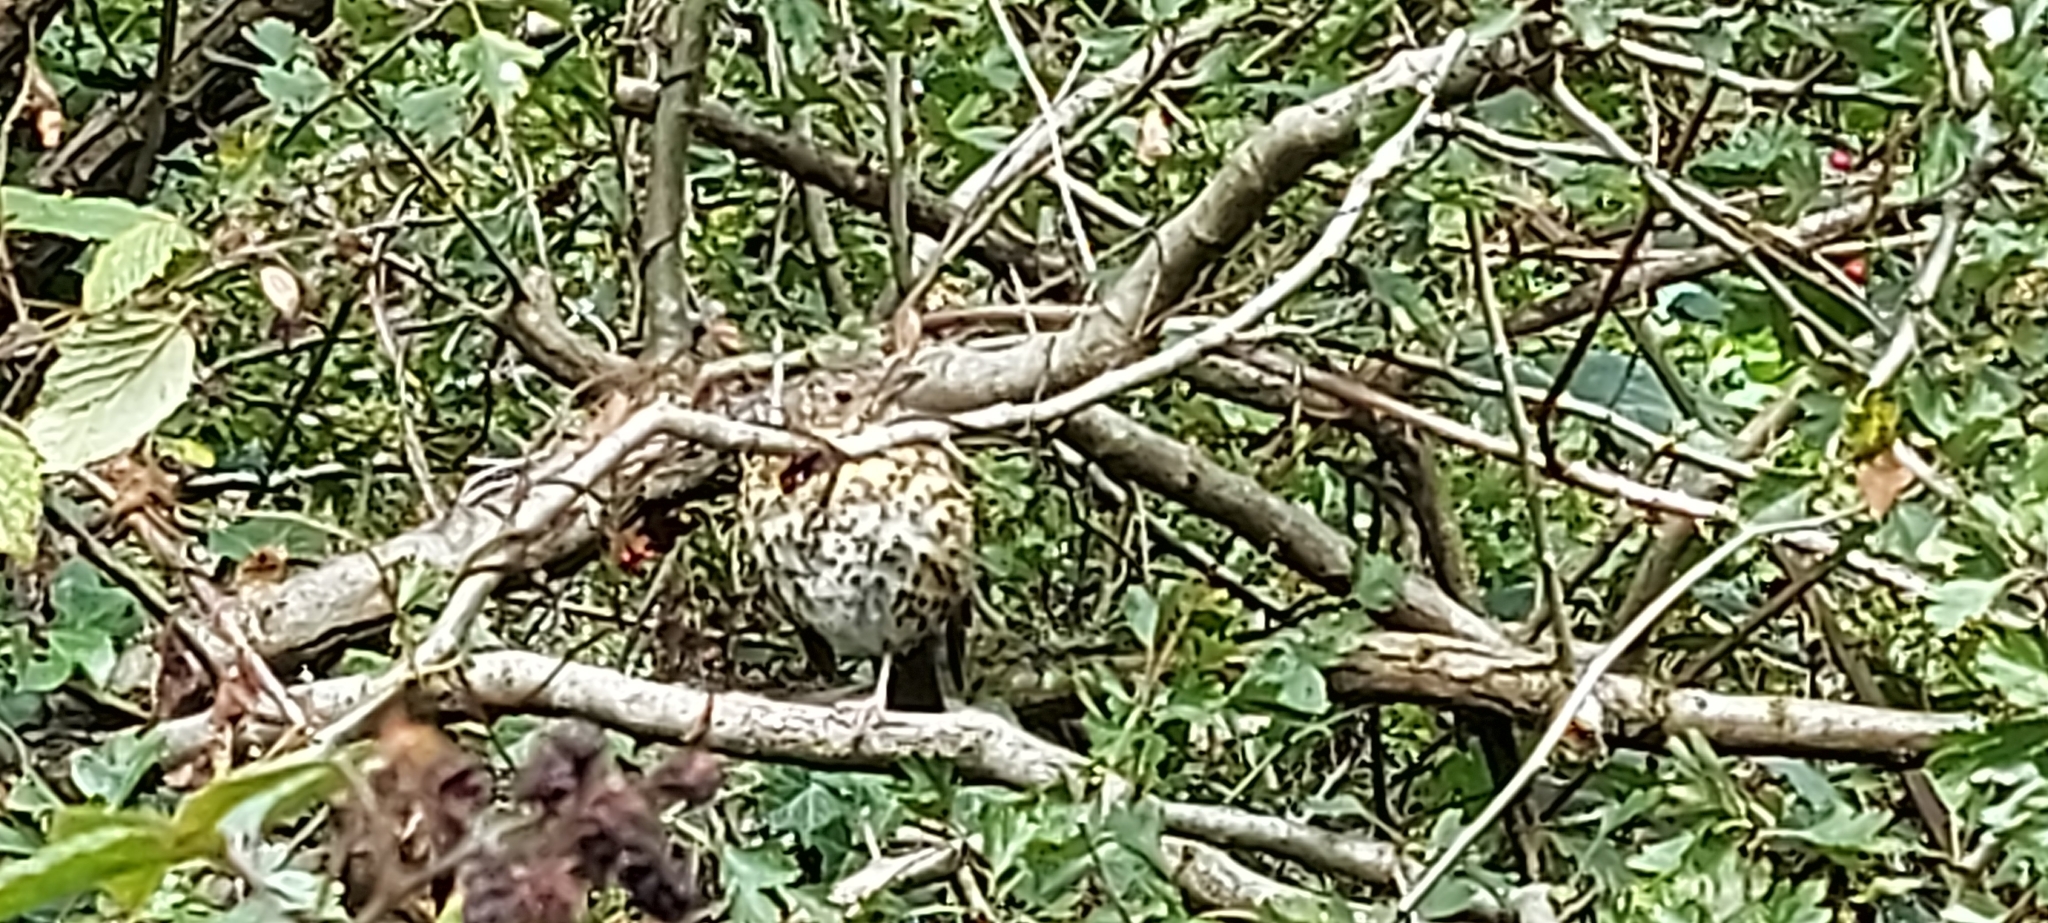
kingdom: Animalia
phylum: Chordata
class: Aves
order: Passeriformes
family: Turdidae
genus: Turdus
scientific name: Turdus philomelos
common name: Song thrush
